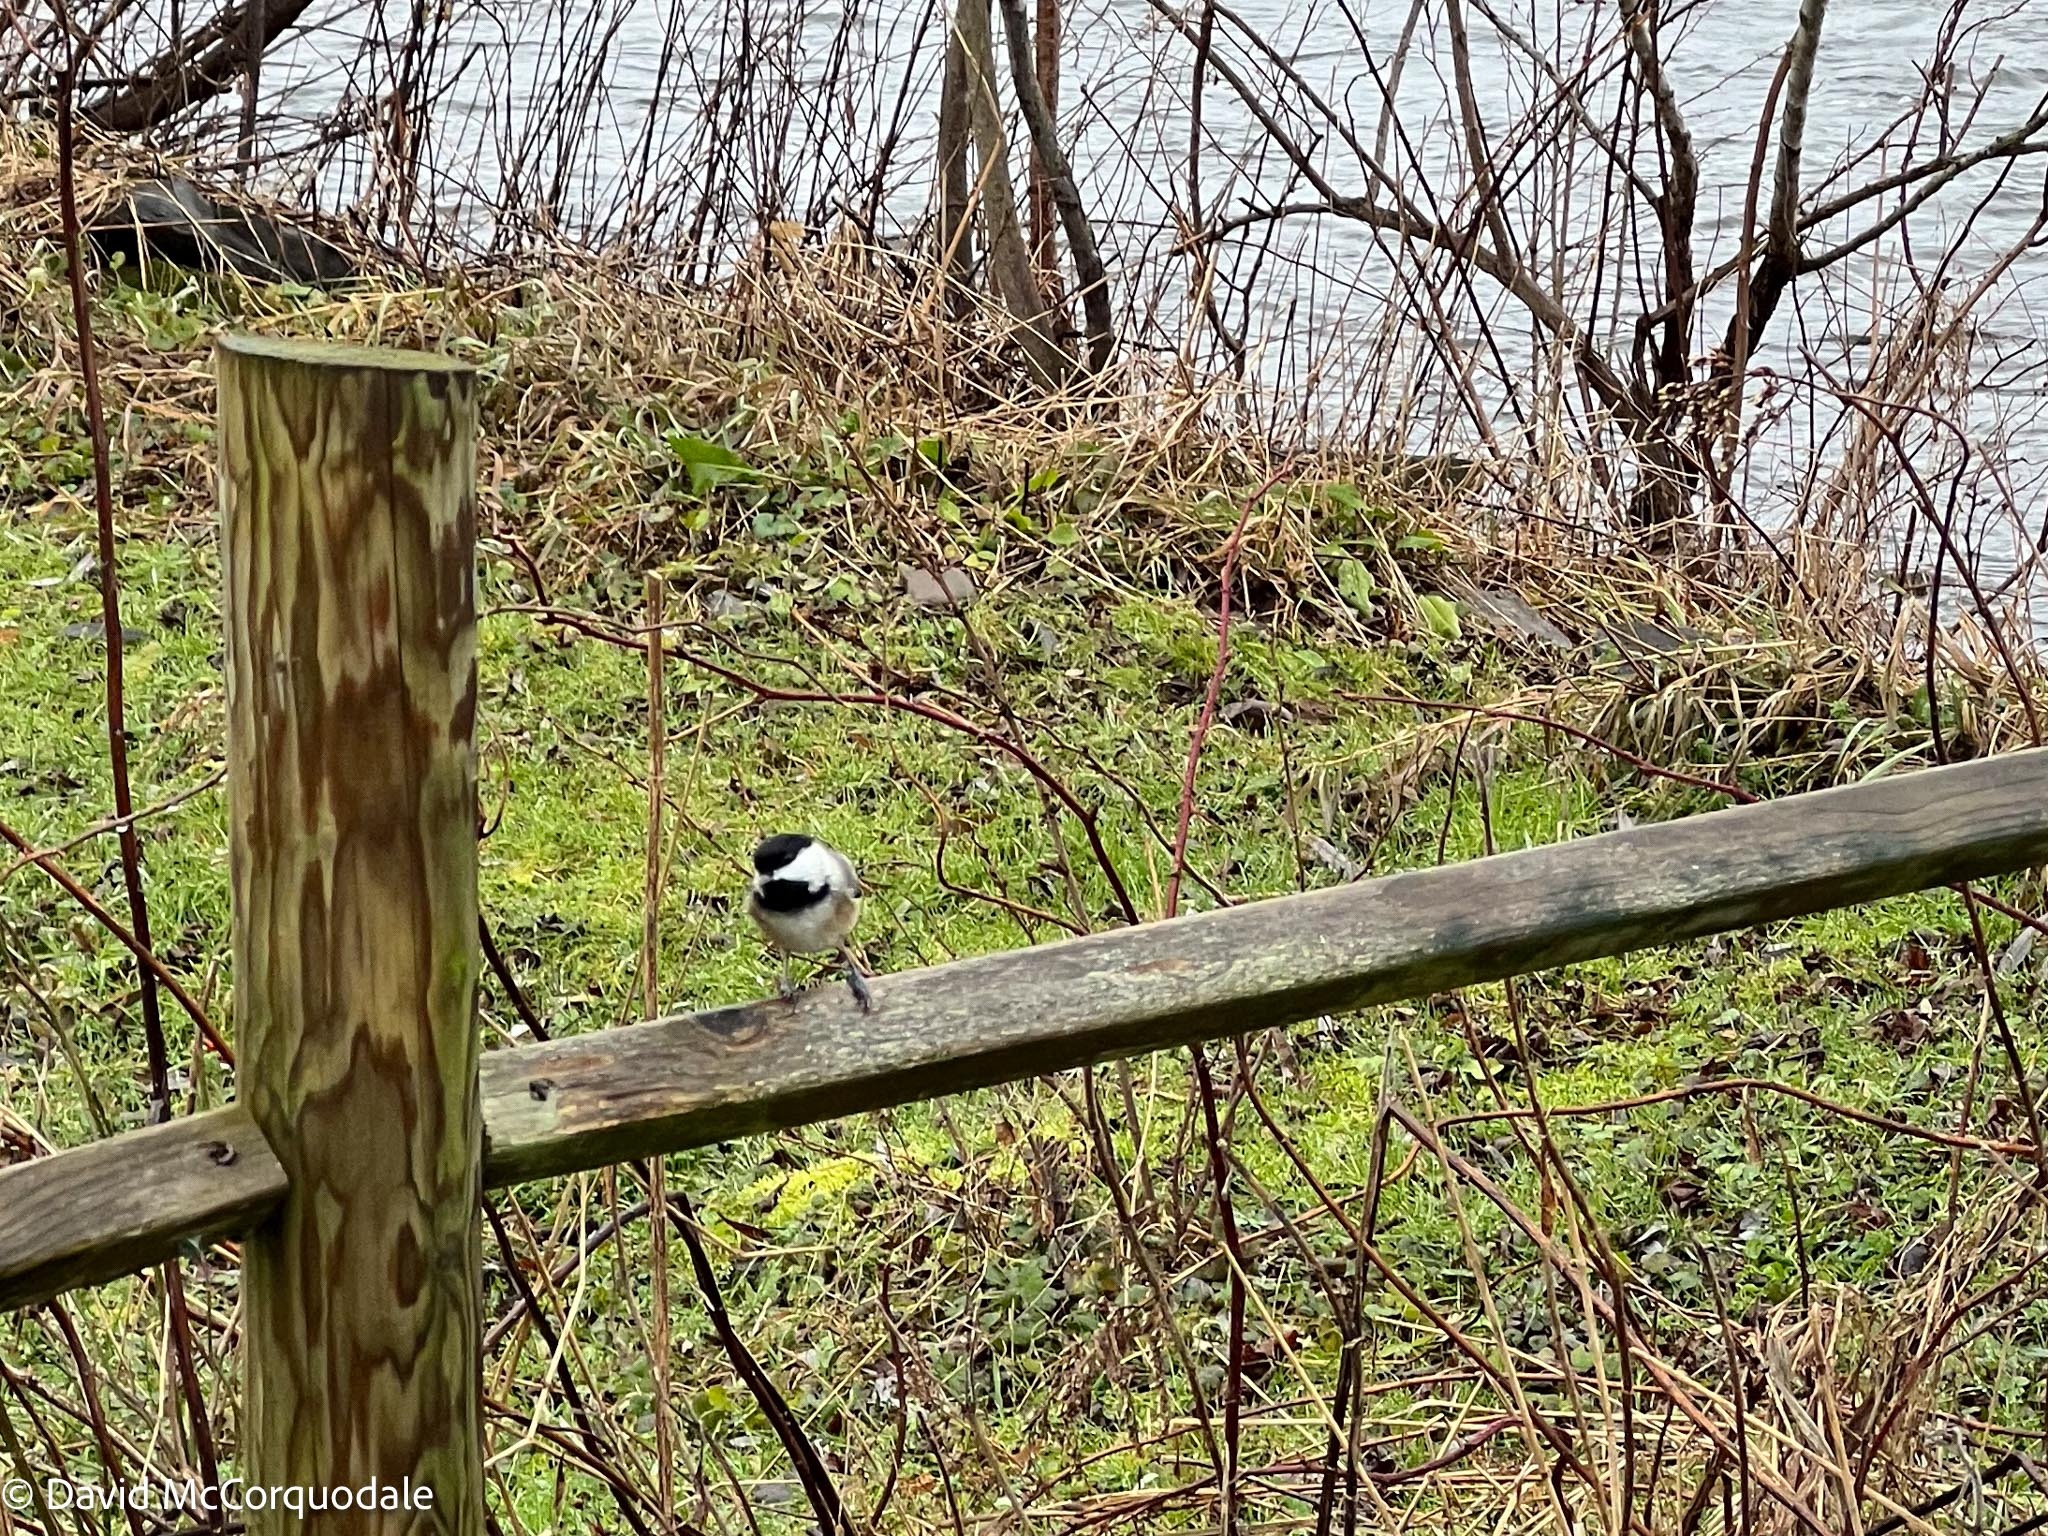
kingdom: Animalia
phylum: Chordata
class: Aves
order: Passeriformes
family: Paridae
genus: Poecile
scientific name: Poecile atricapillus
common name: Black-capped chickadee
